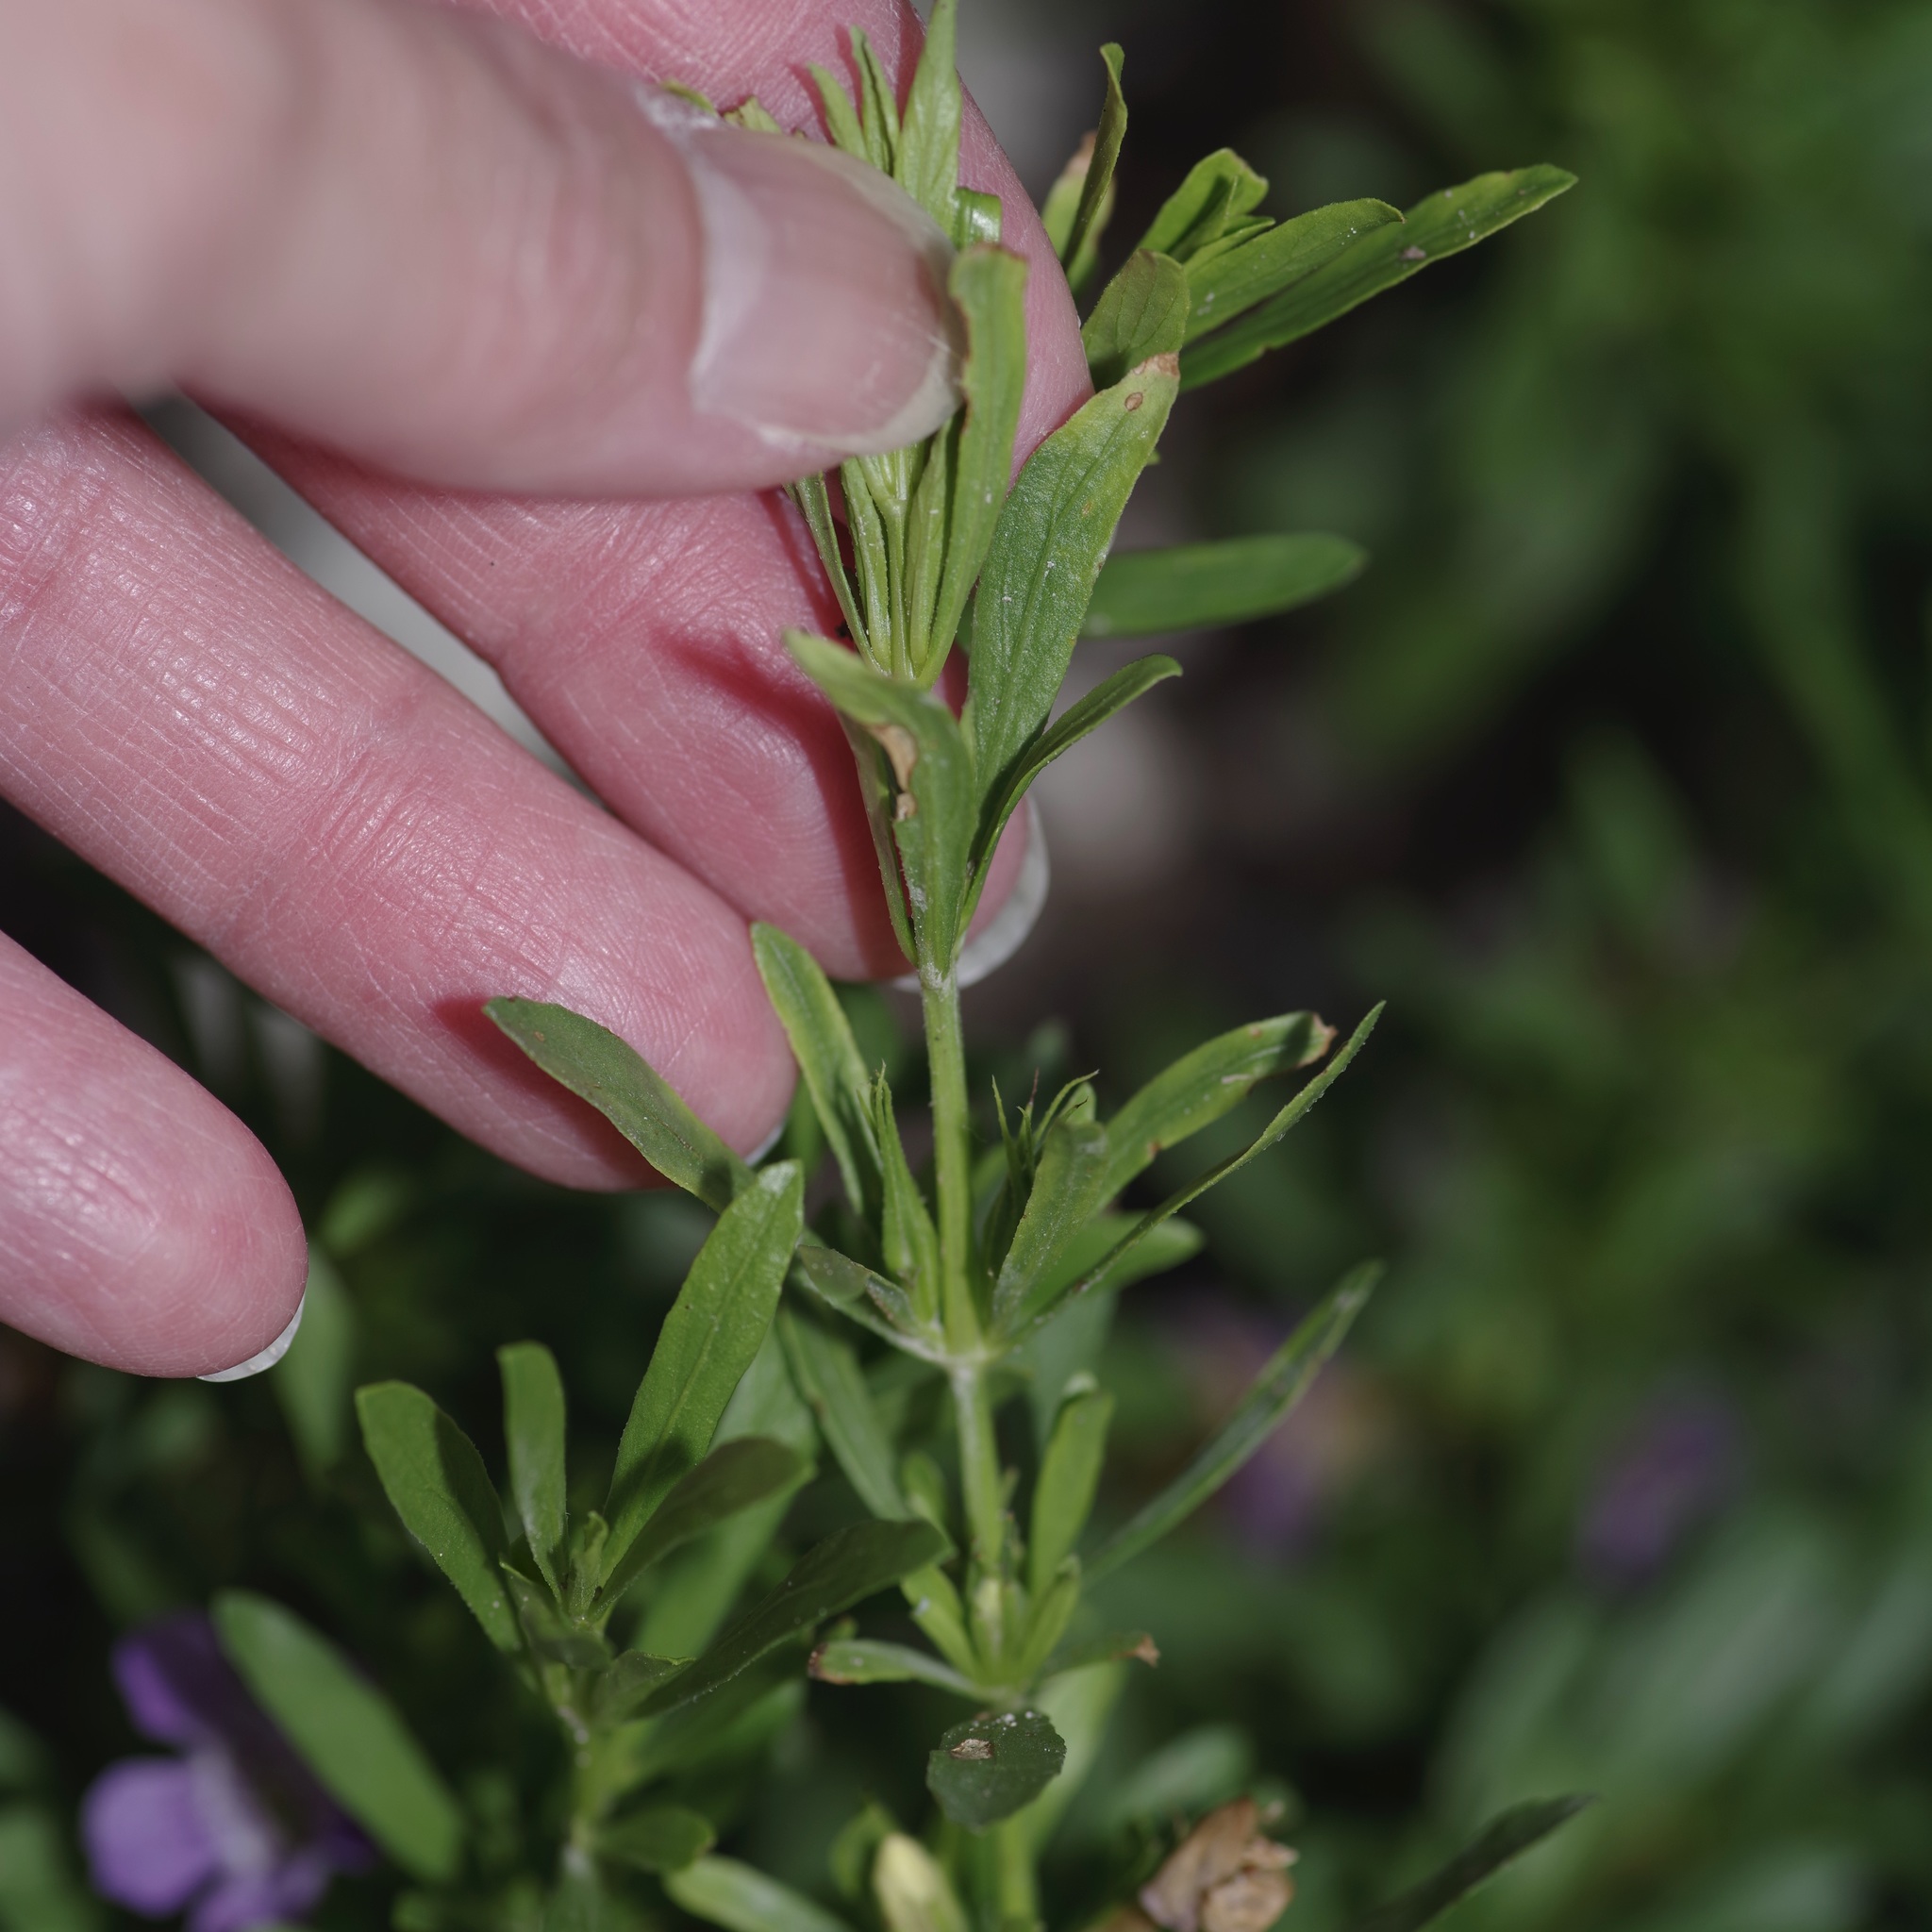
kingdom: Plantae
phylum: Tracheophyta
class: Magnoliopsida
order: Lamiales
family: Acanthaceae
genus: Dyschoriste
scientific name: Dyschoriste linearis
